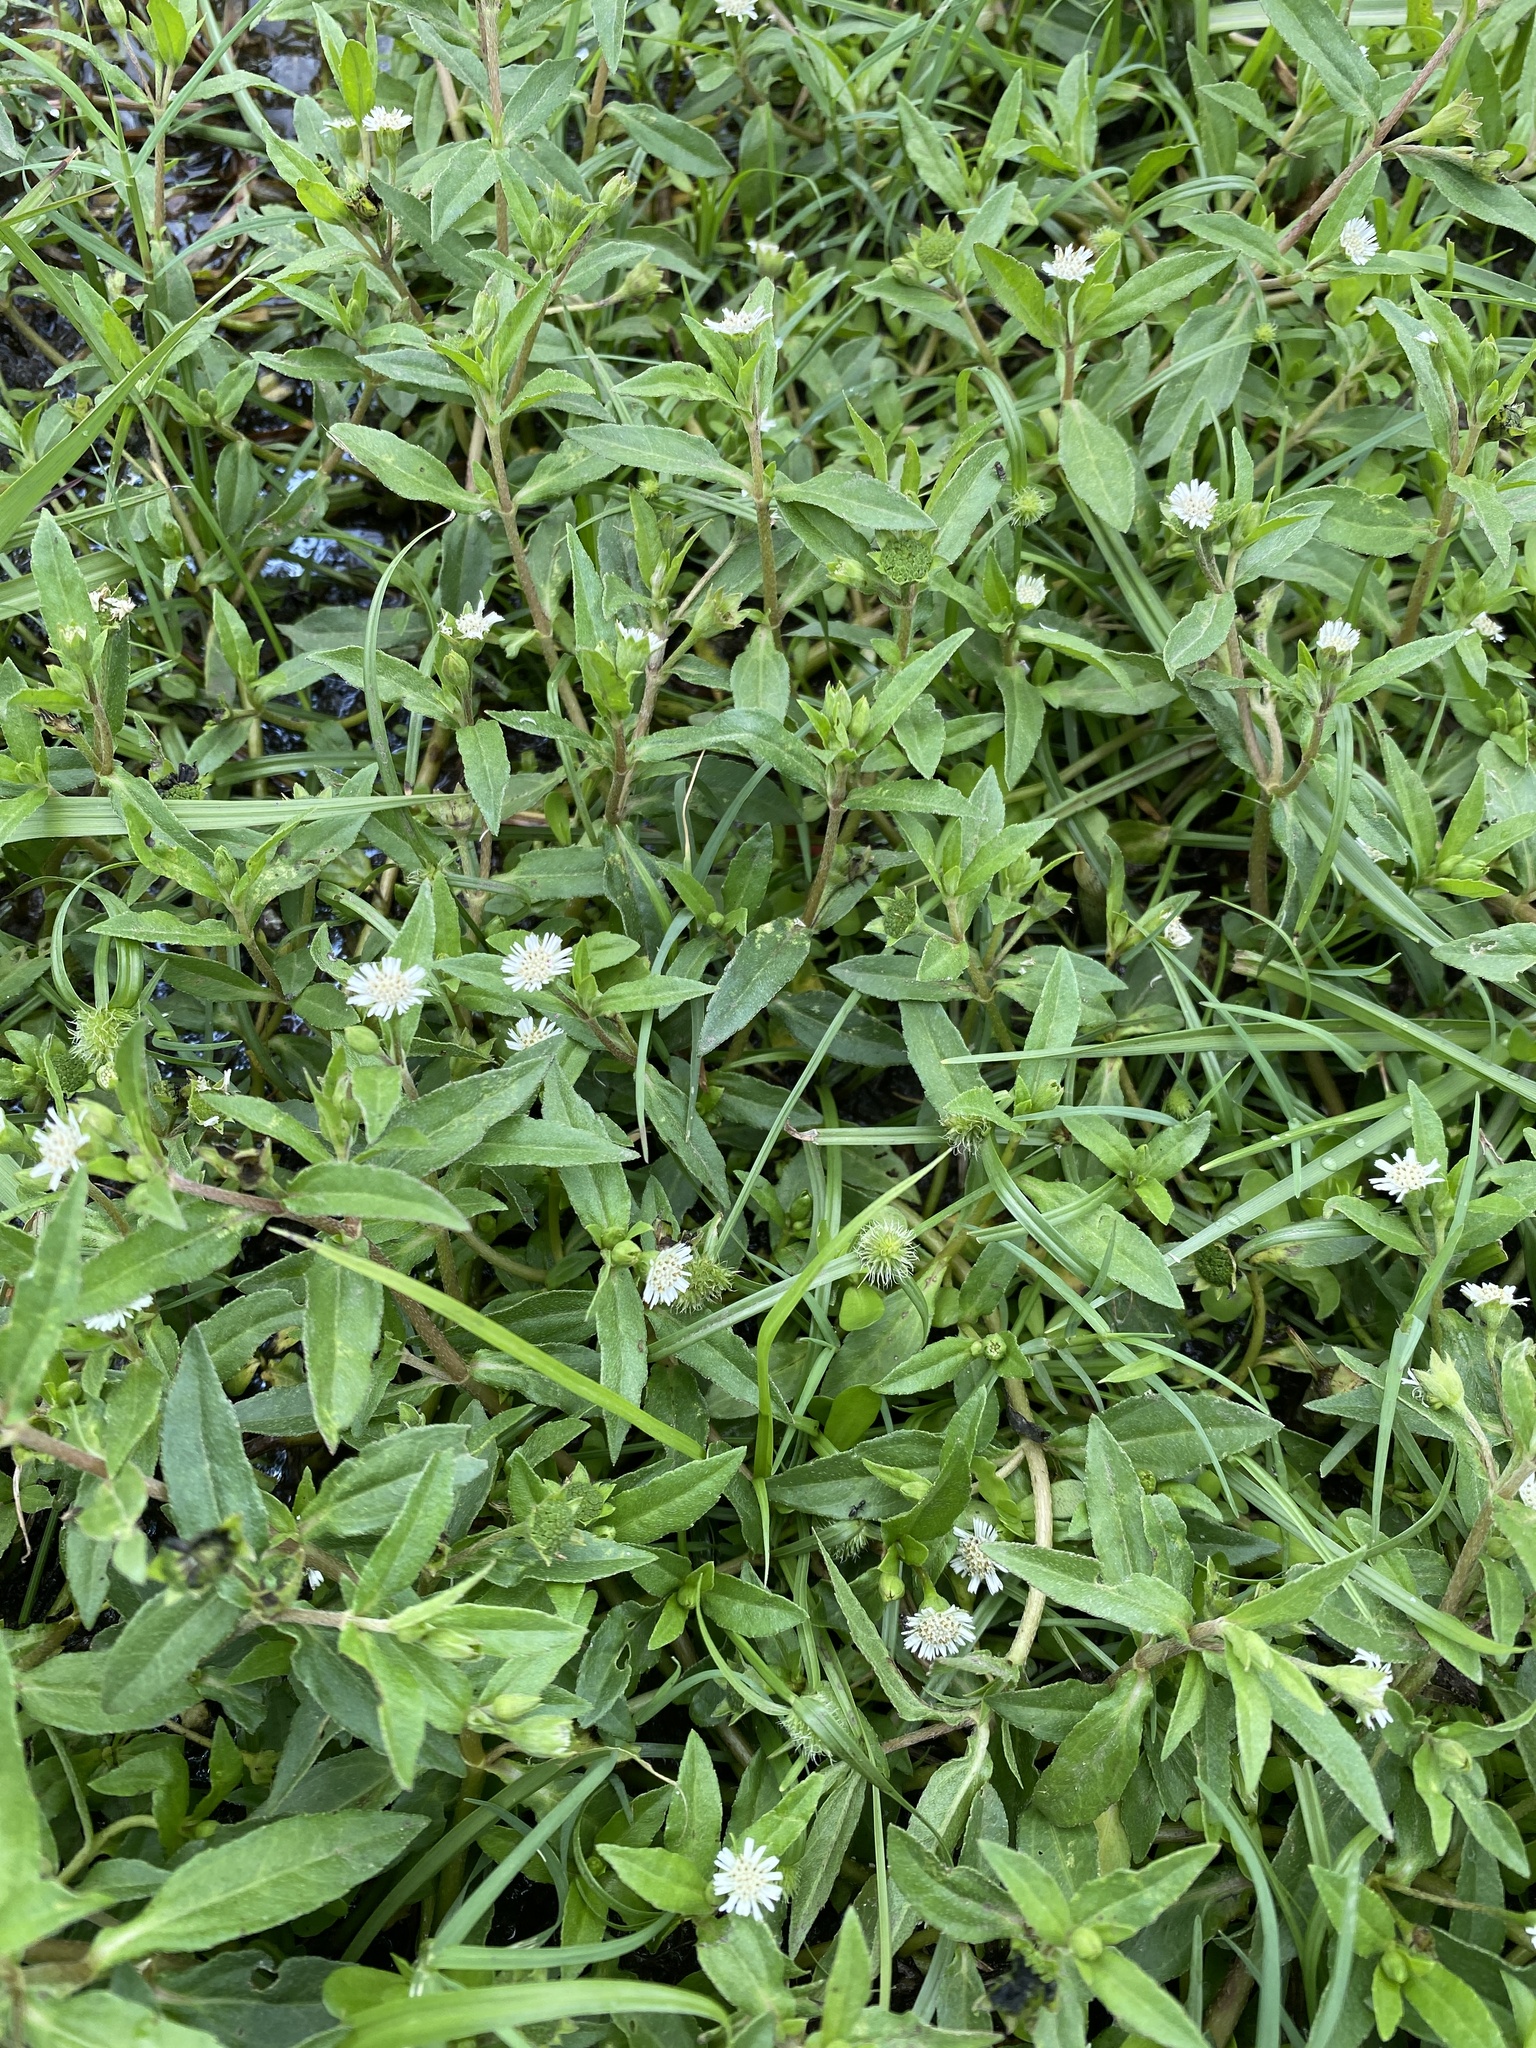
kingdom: Plantae
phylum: Tracheophyta
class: Magnoliopsida
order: Asterales
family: Asteraceae
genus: Eclipta
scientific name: Eclipta prostrata
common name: False daisy
